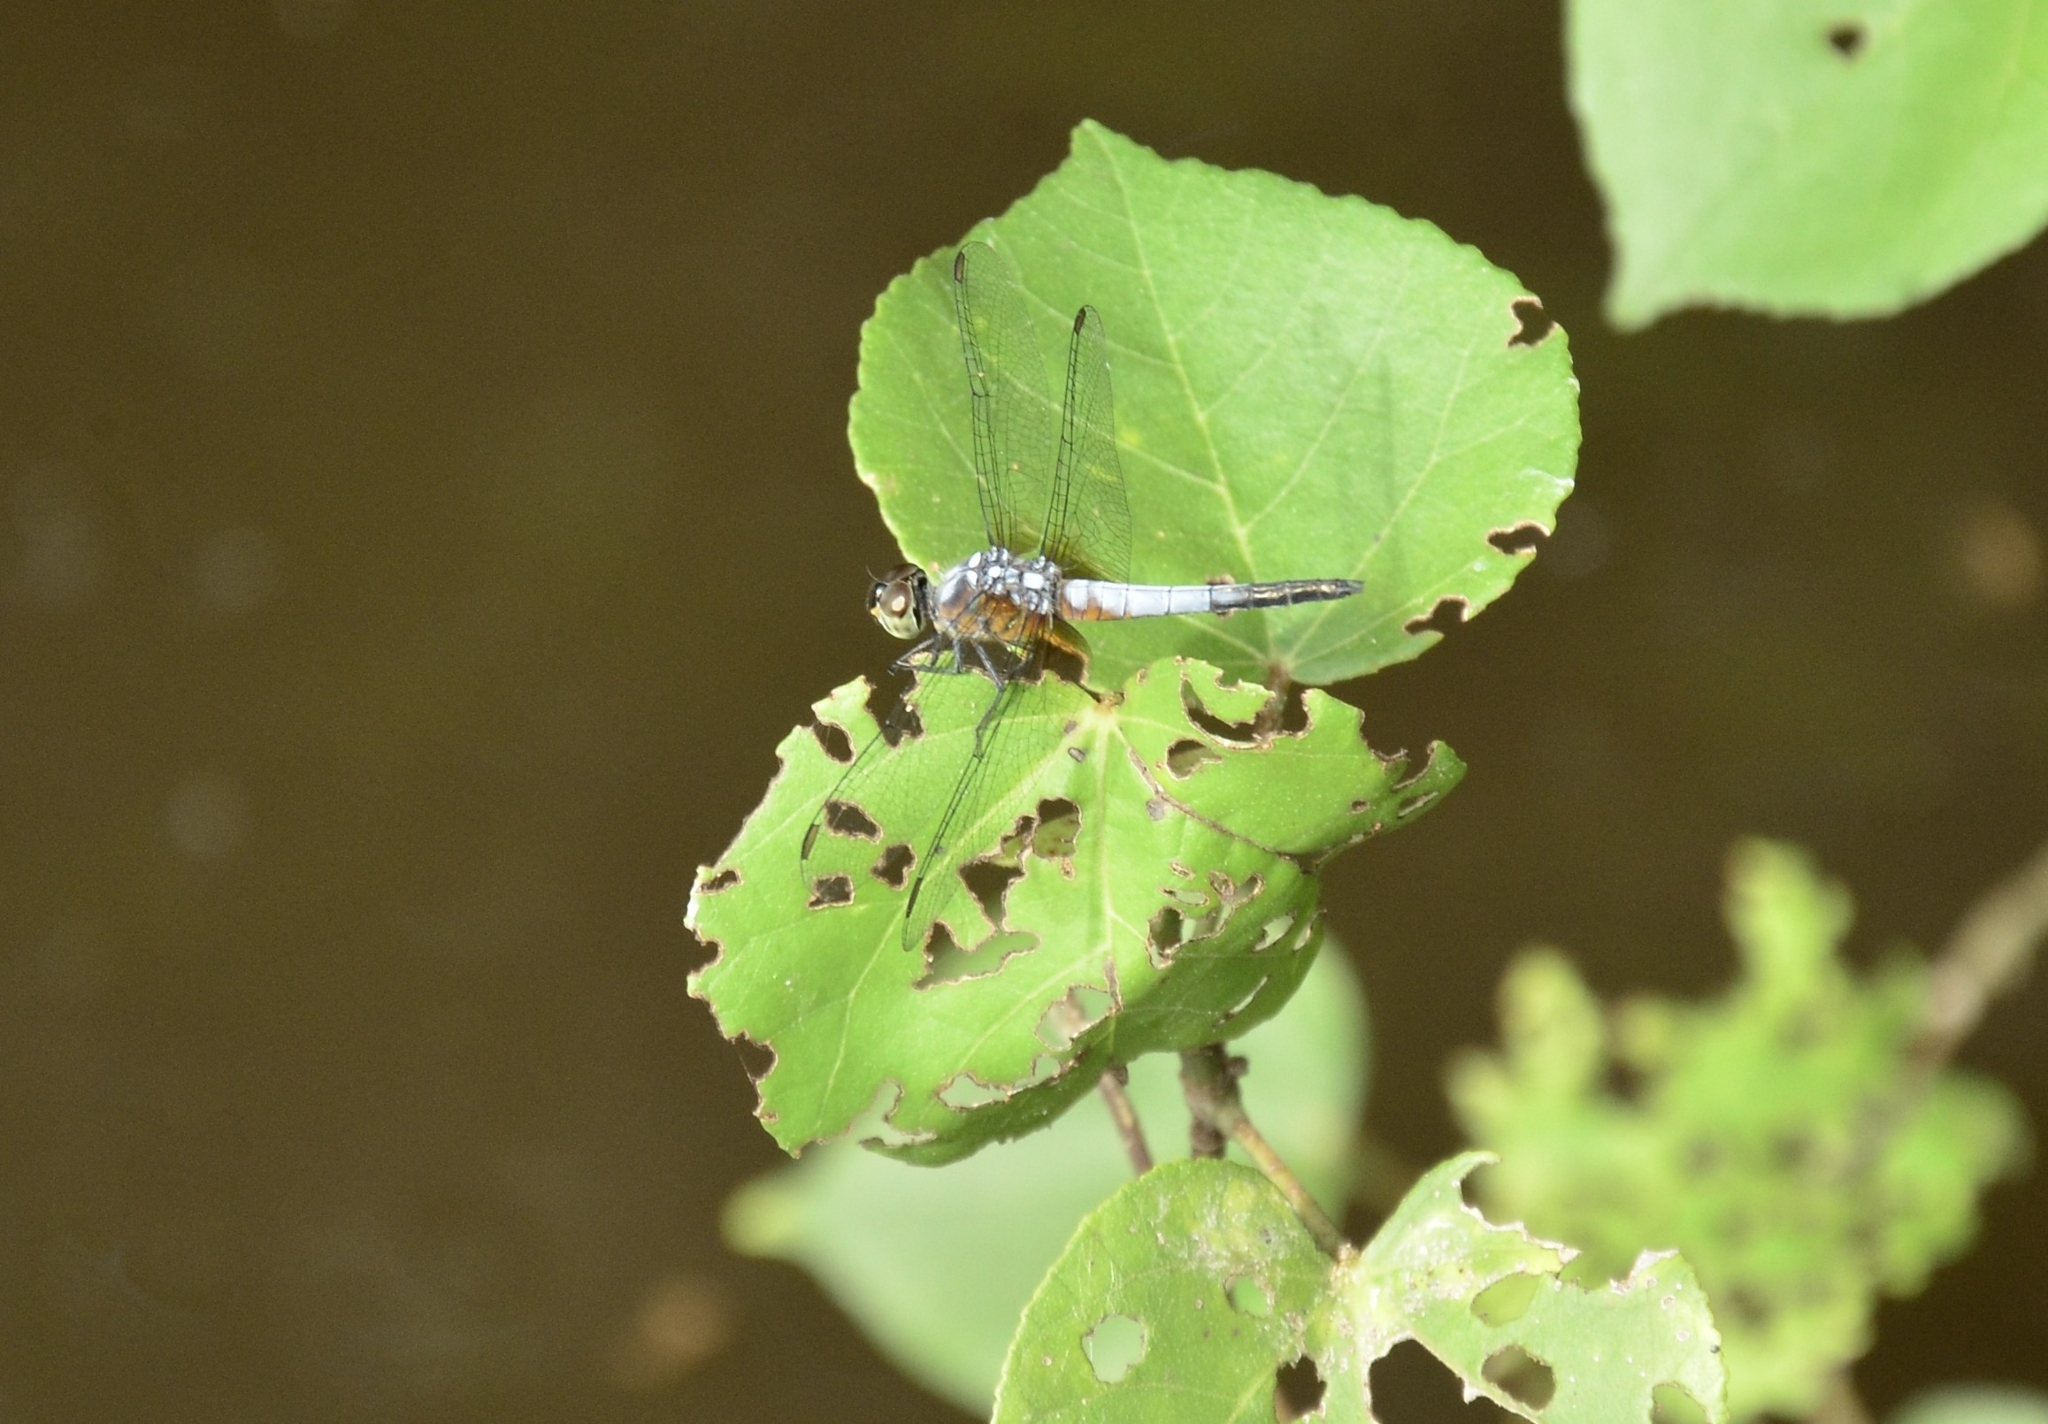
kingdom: Animalia
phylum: Arthropoda
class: Insecta
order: Odonata
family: Libellulidae
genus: Brachydiplax
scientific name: Brachydiplax chalybea
